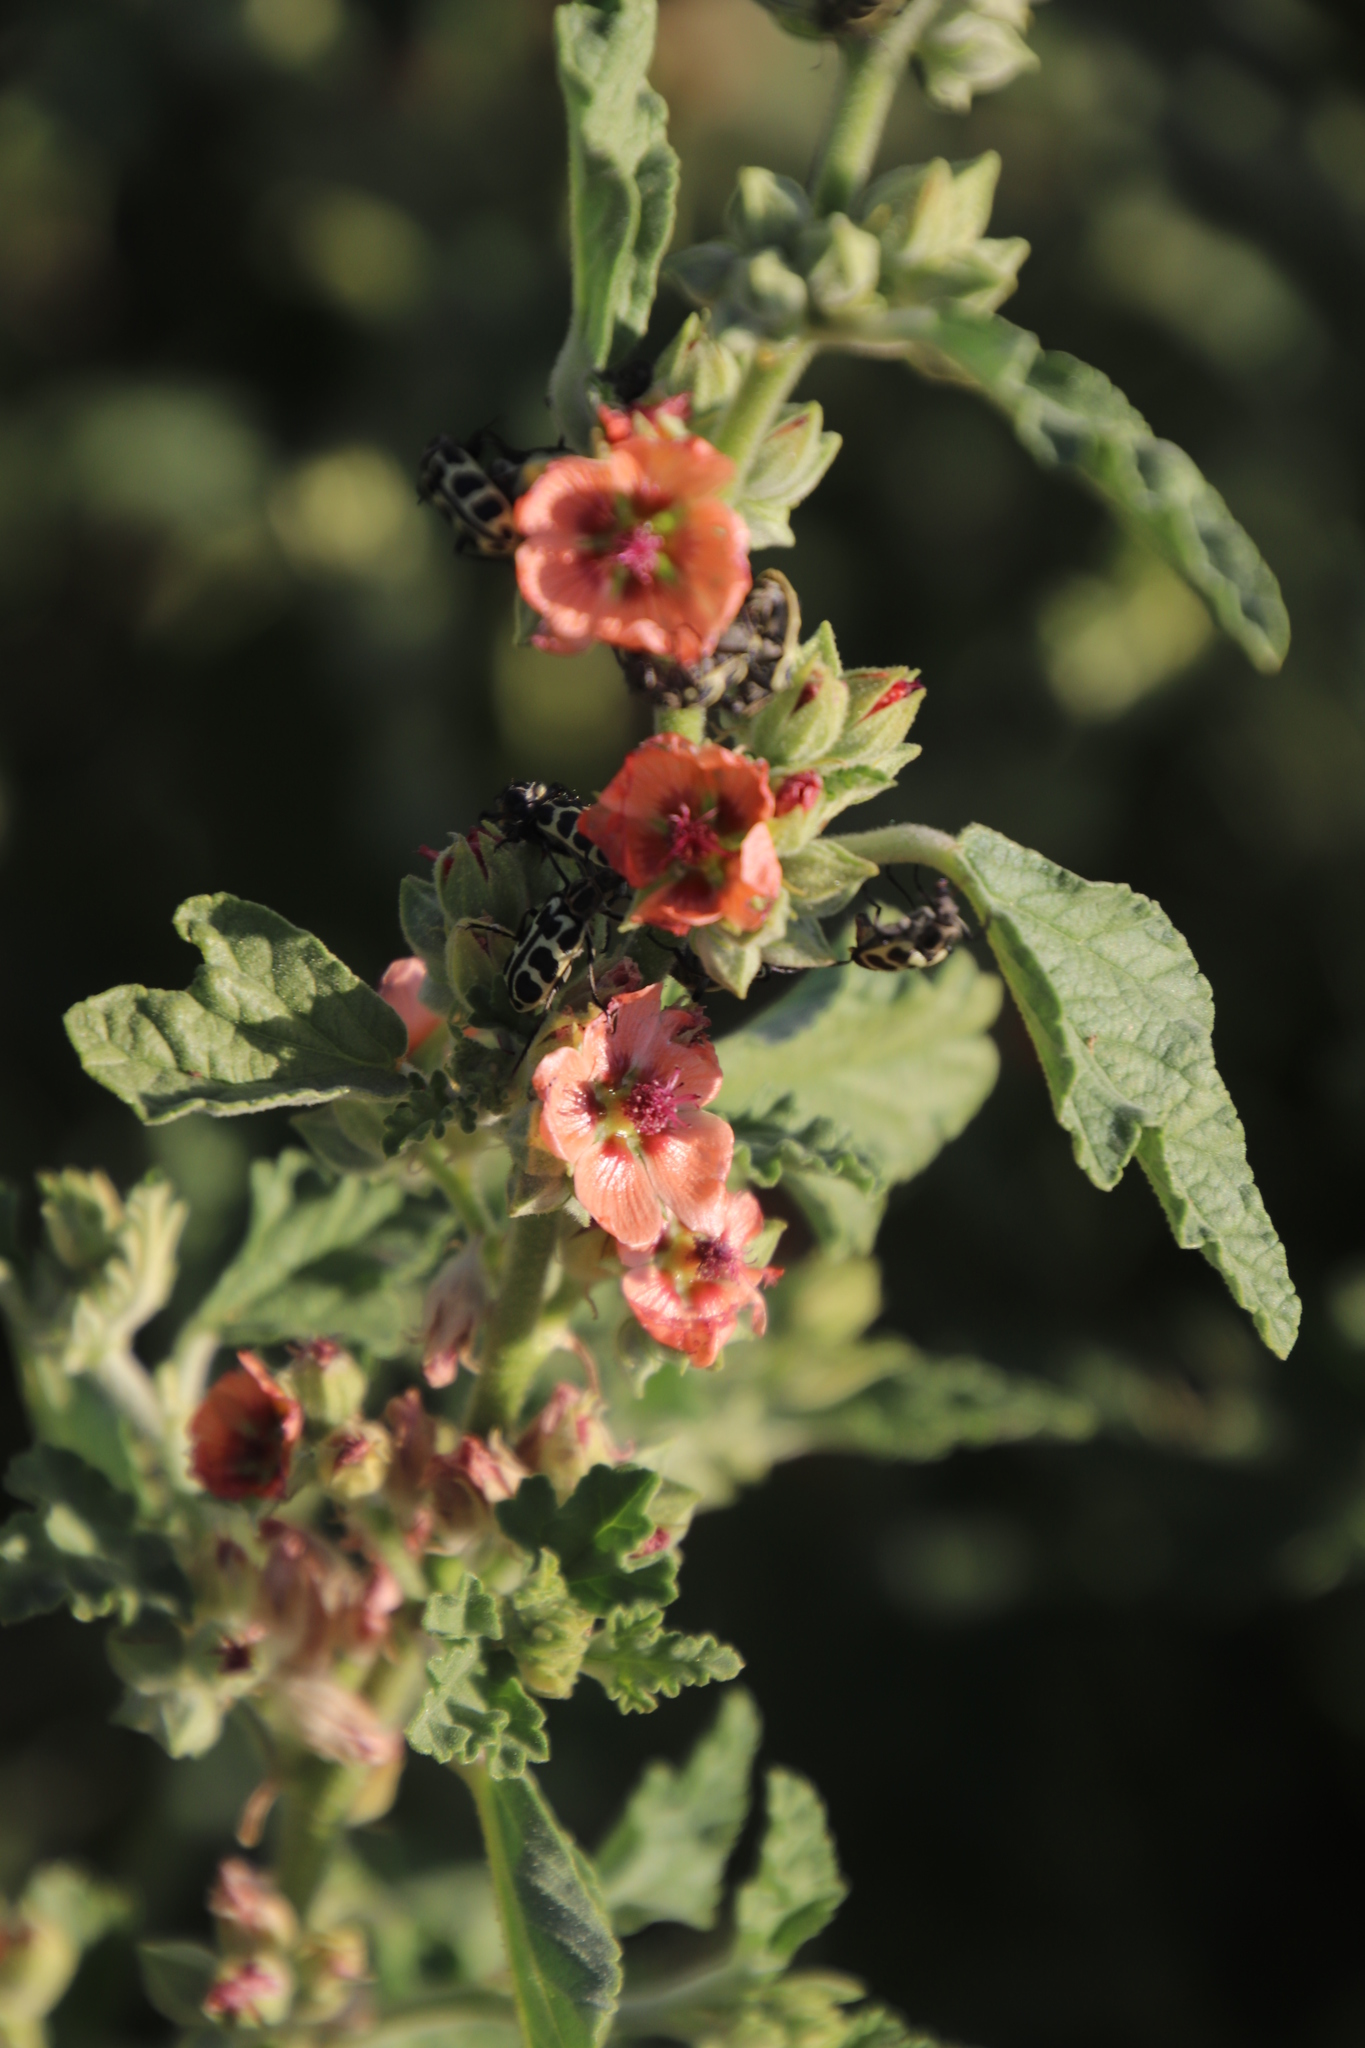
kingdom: Animalia
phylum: Arthropoda
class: Insecta
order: Coleoptera
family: Melyridae
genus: Astylus
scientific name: Astylus atromaculatus
